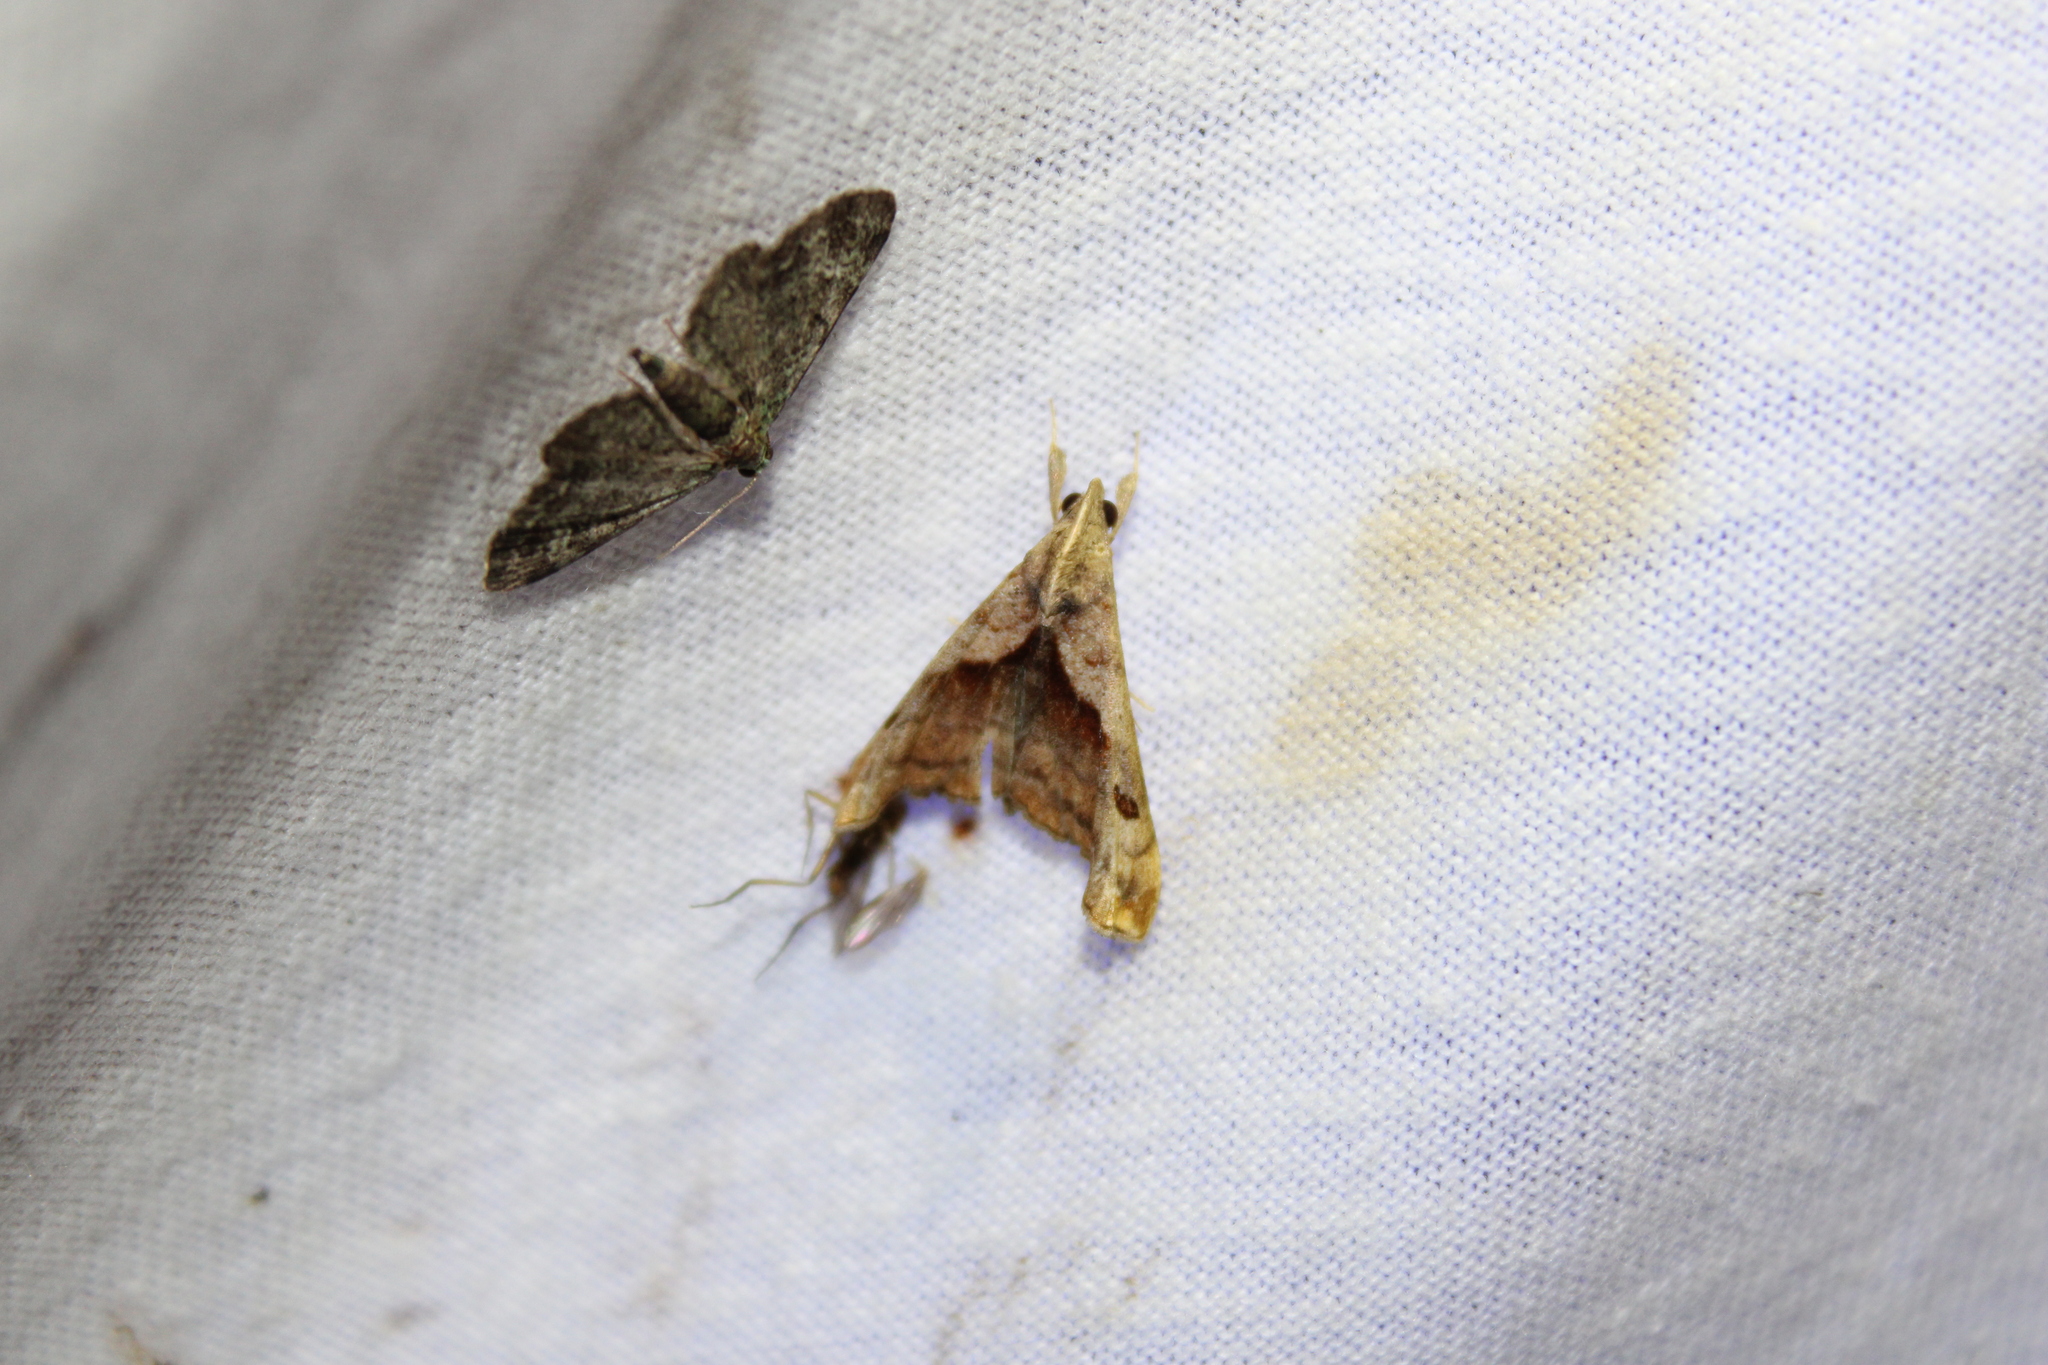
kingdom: Animalia
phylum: Arthropoda
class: Insecta
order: Lepidoptera
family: Erebidae
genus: Palthis
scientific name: Palthis angulalis
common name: Dark-spotted palthis moth
